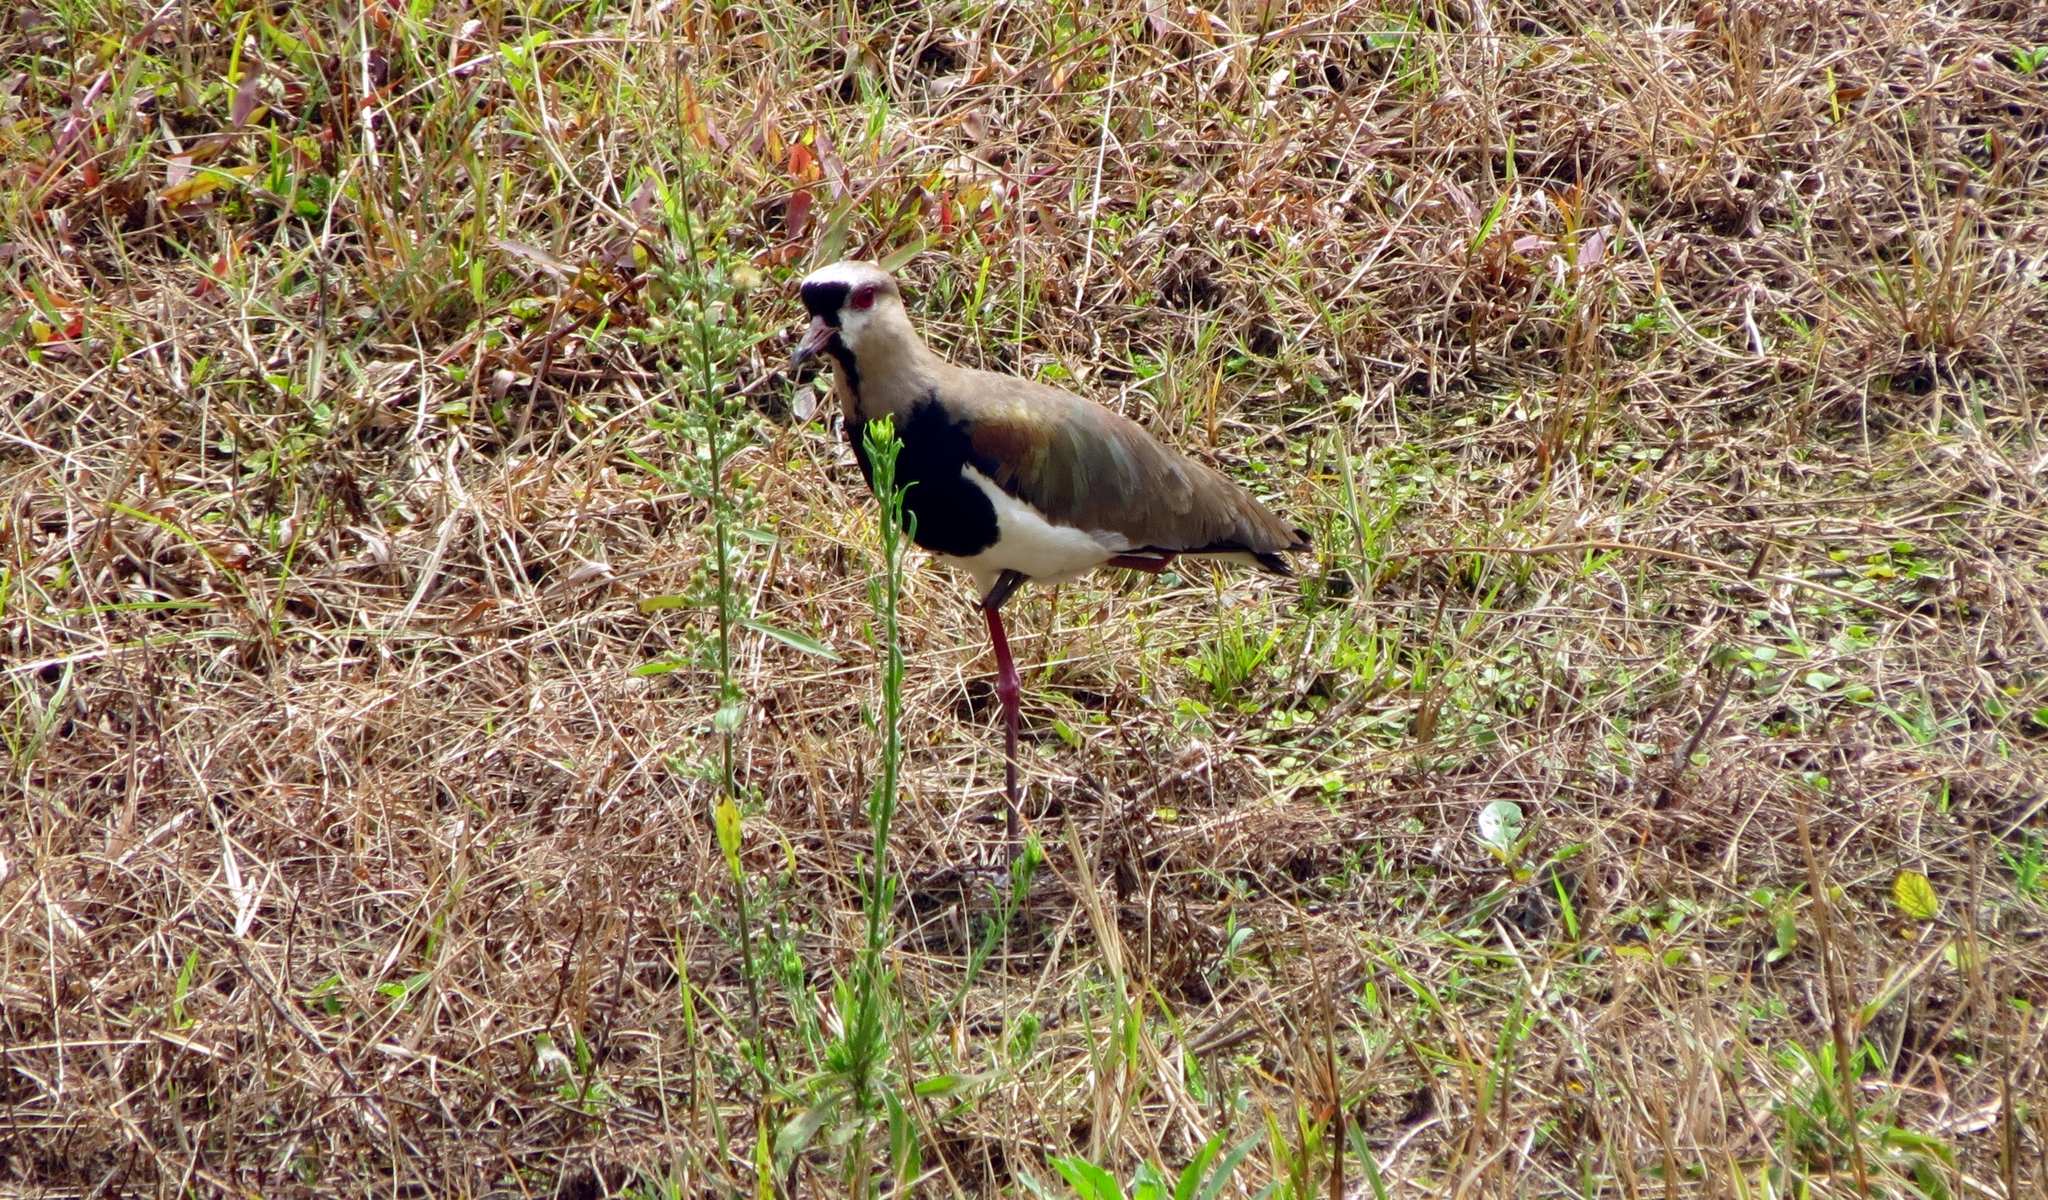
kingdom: Animalia
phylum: Chordata
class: Aves
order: Charadriiformes
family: Charadriidae
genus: Vanellus
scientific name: Vanellus chilensis
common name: Southern lapwing
